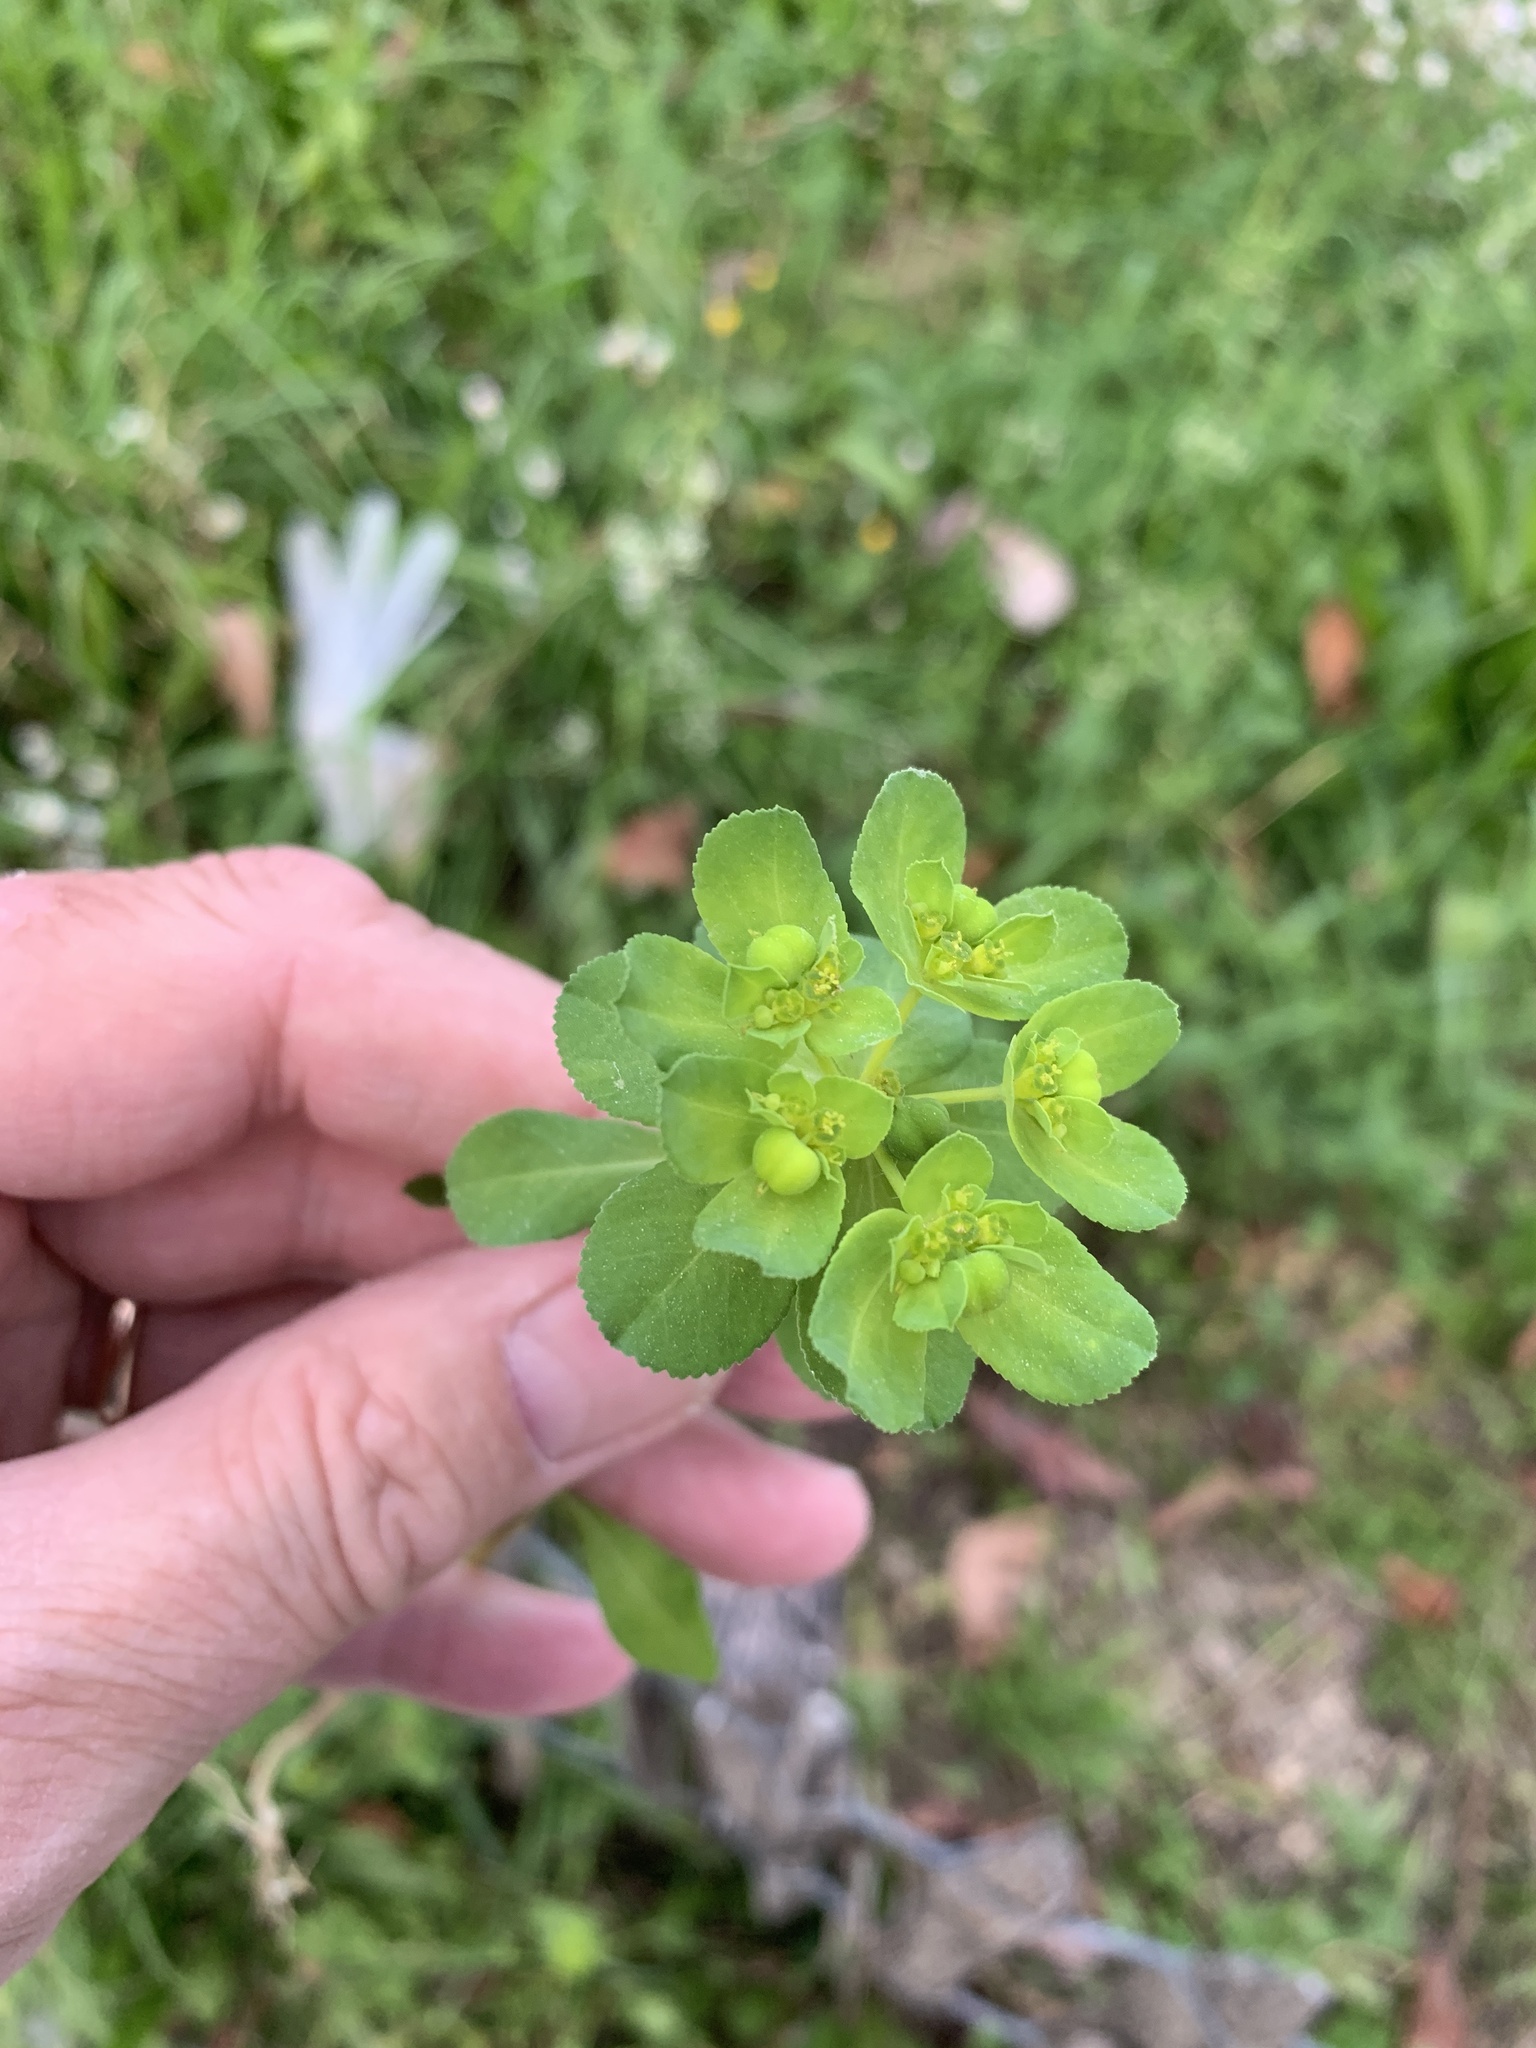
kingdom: Plantae
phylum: Tracheophyta
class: Magnoliopsida
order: Malpighiales
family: Euphorbiaceae
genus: Euphorbia
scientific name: Euphorbia helioscopia
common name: Sun spurge
